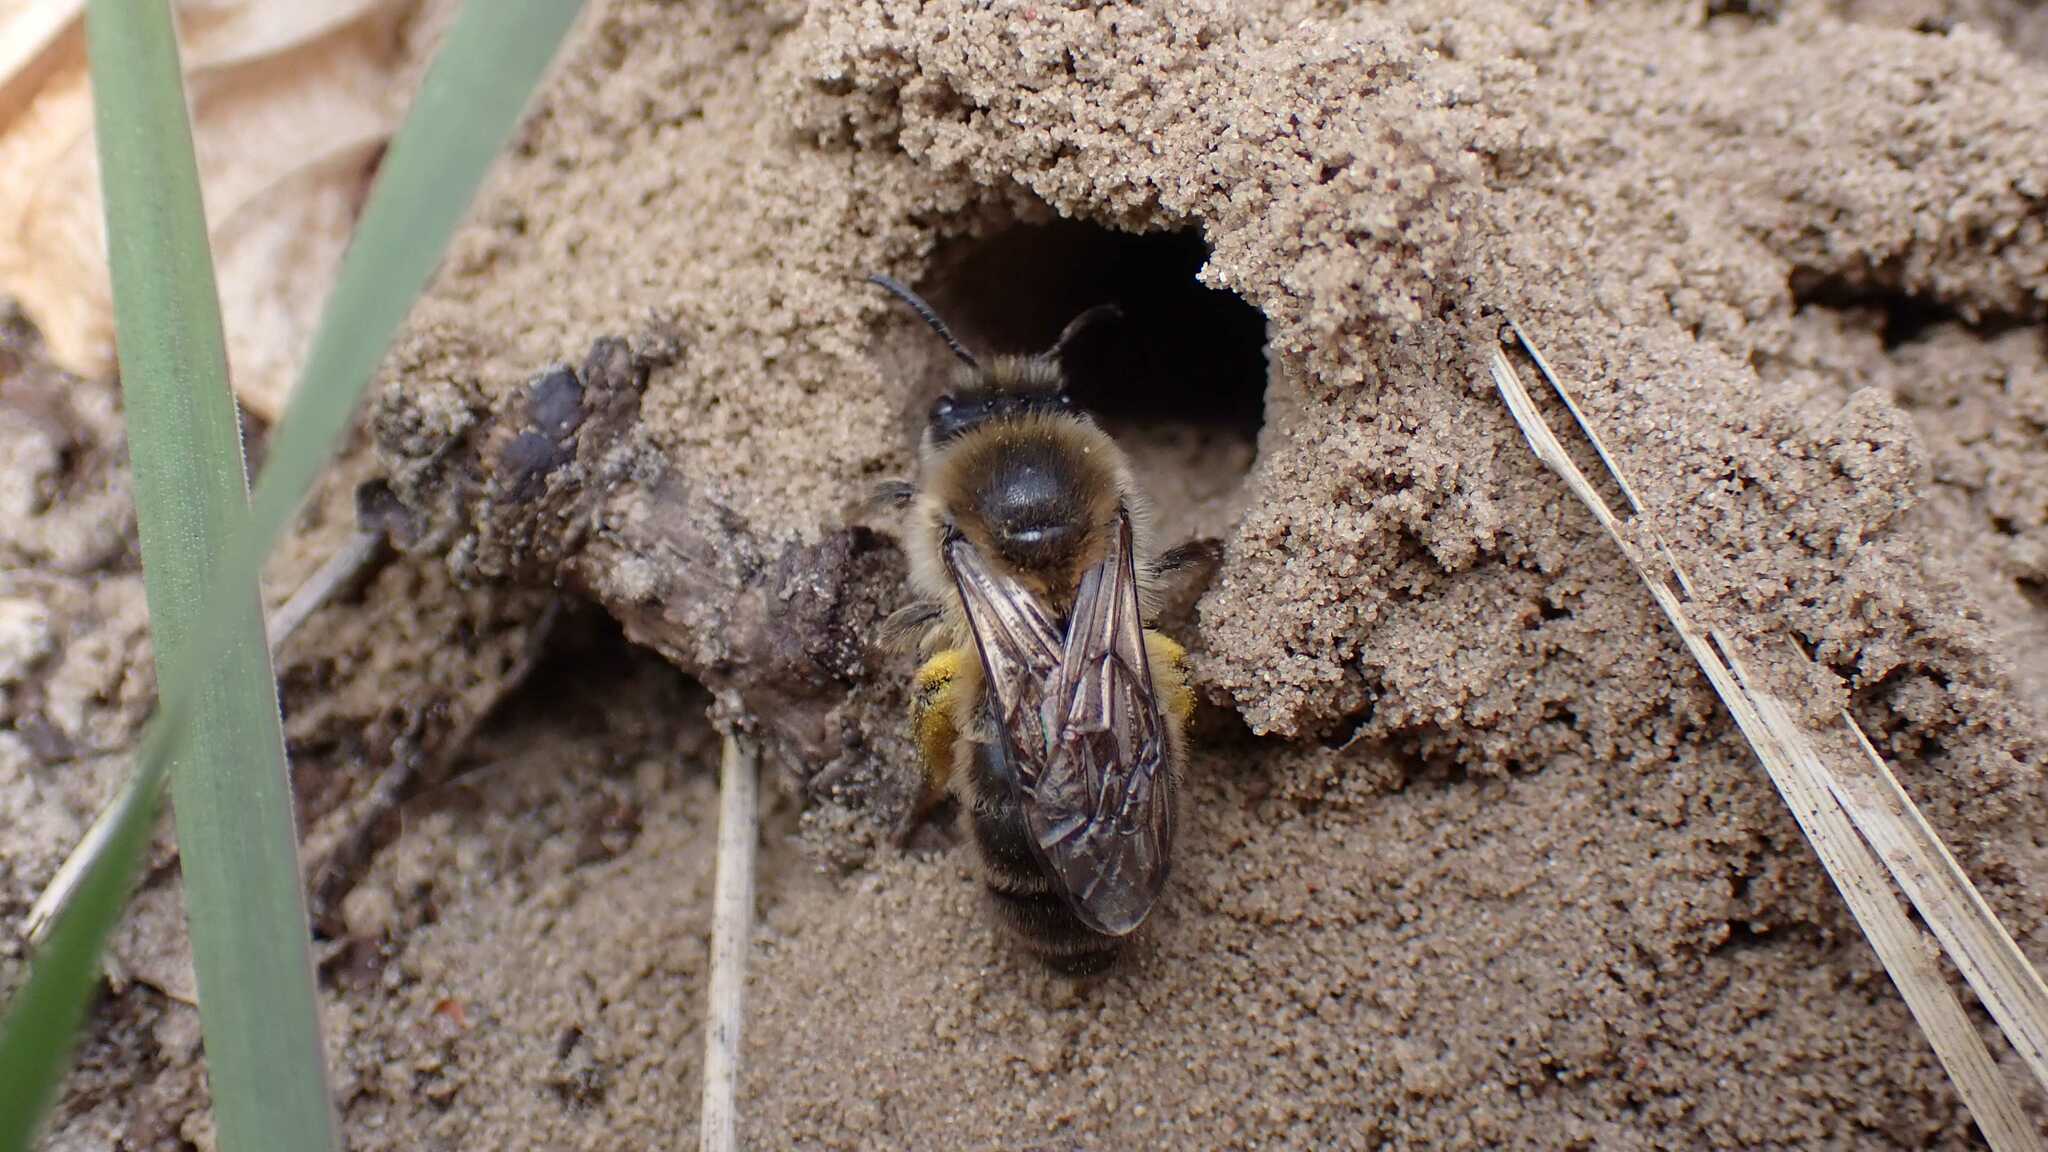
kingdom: Animalia
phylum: Arthropoda
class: Insecta
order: Hymenoptera
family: Colletidae
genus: Colletes
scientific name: Colletes cunicularius
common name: Early colletes
